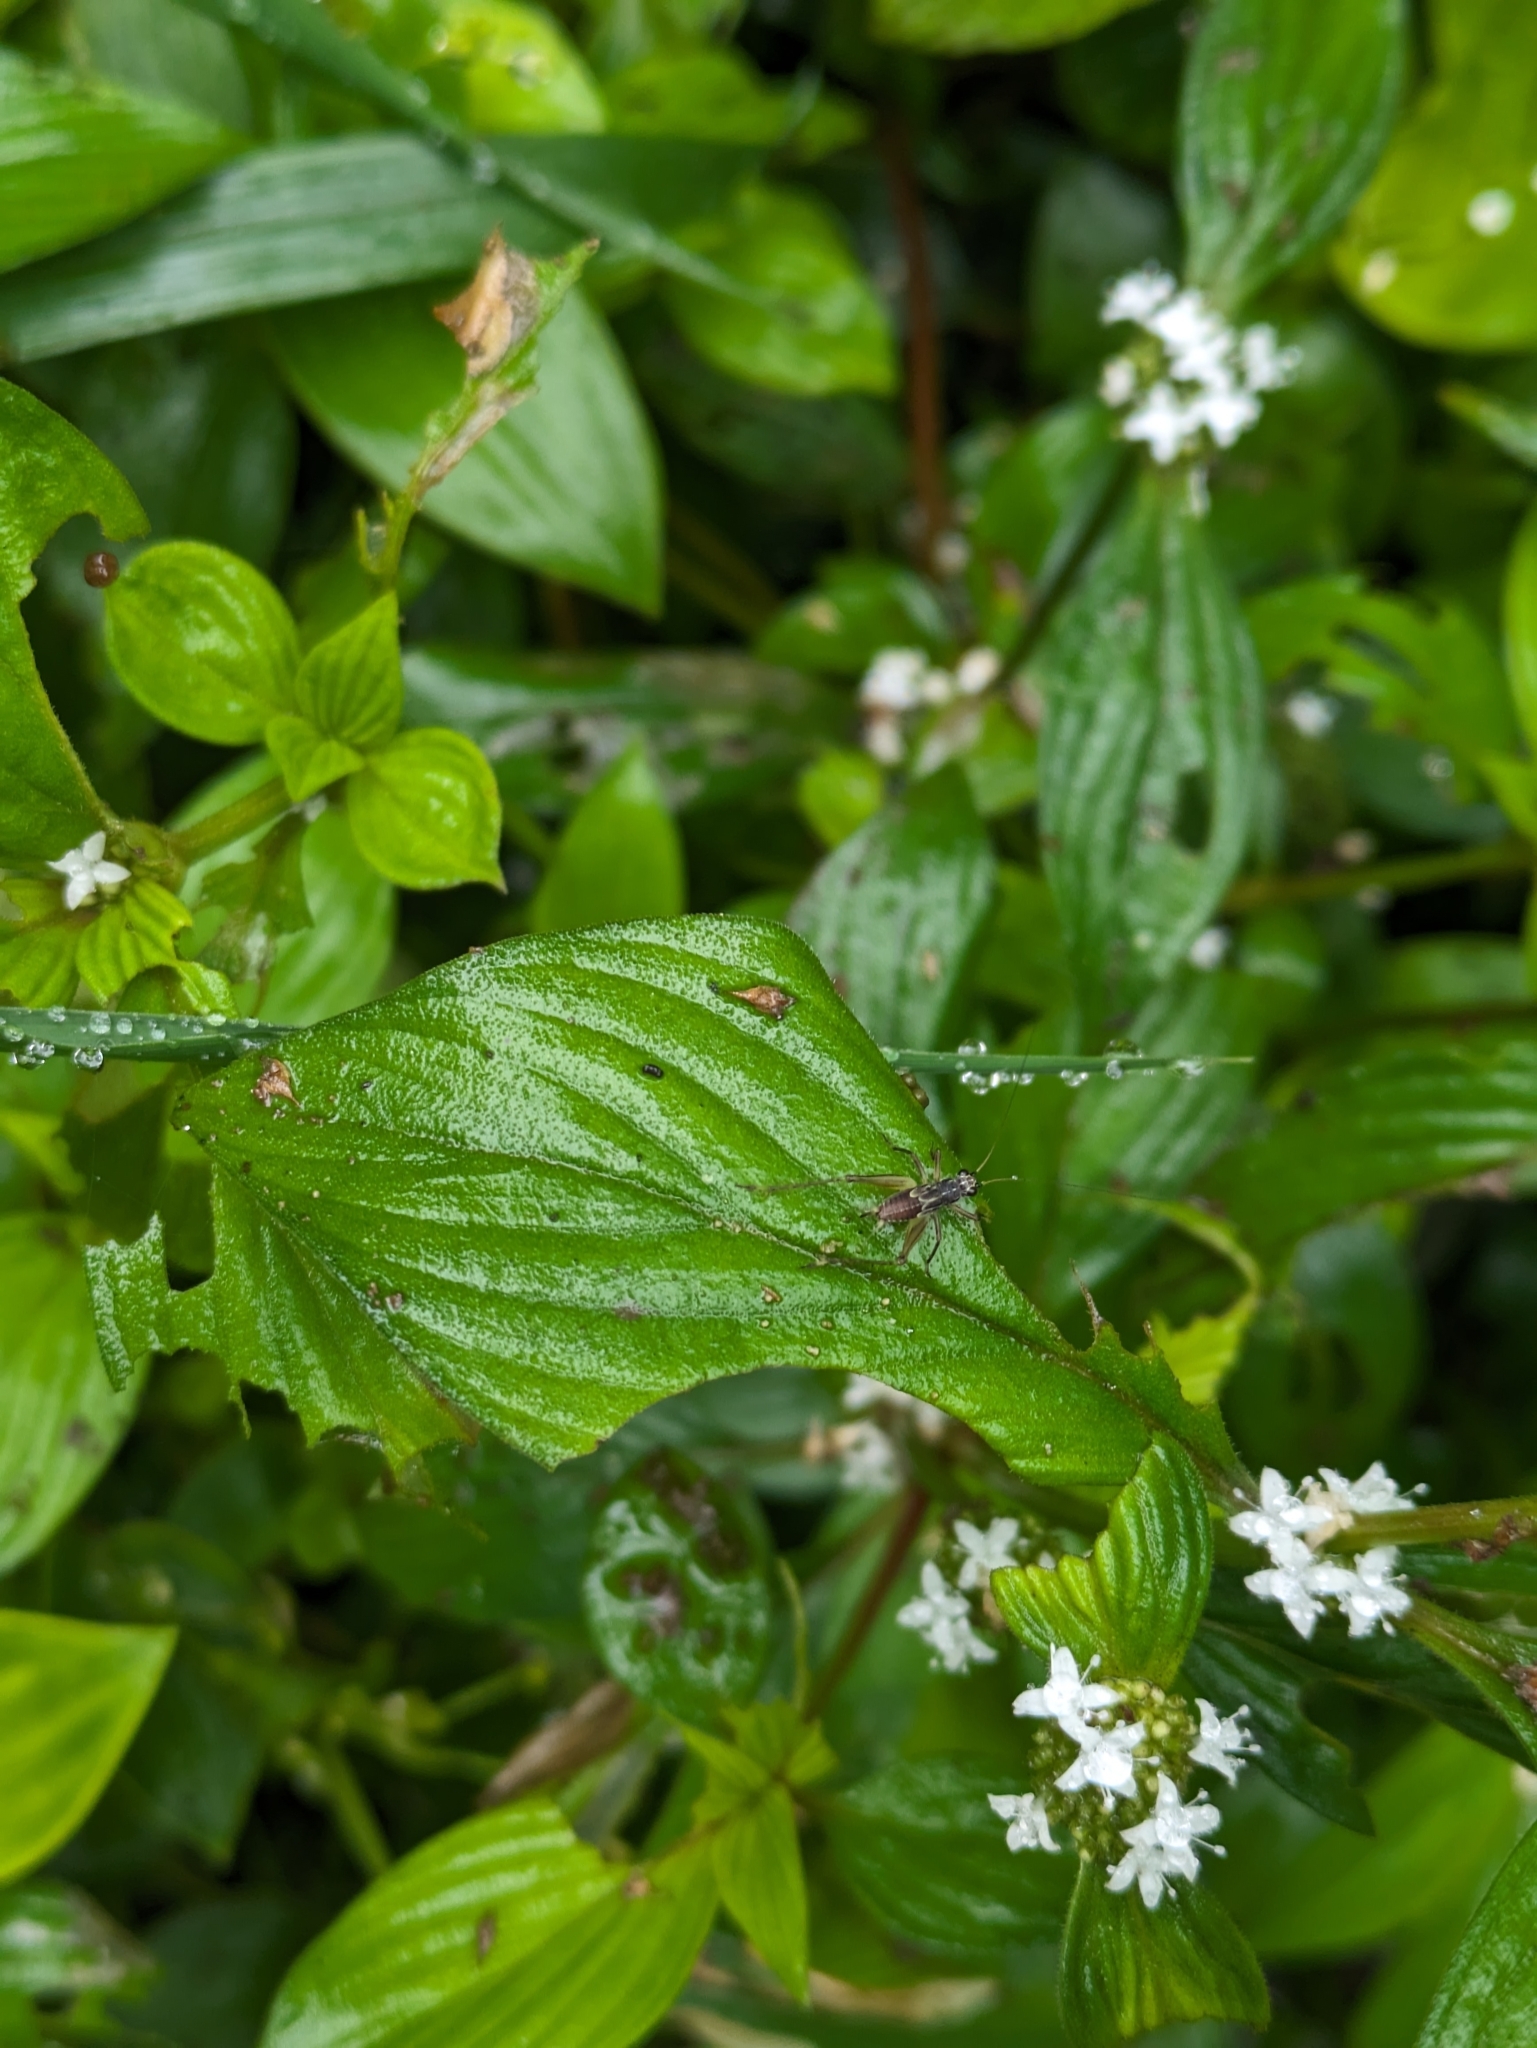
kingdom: Animalia
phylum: Arthropoda
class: Insecta
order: Orthoptera
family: Trigonidiidae
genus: Jarmilaxipha
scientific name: Jarmilaxipha ecuadorica
